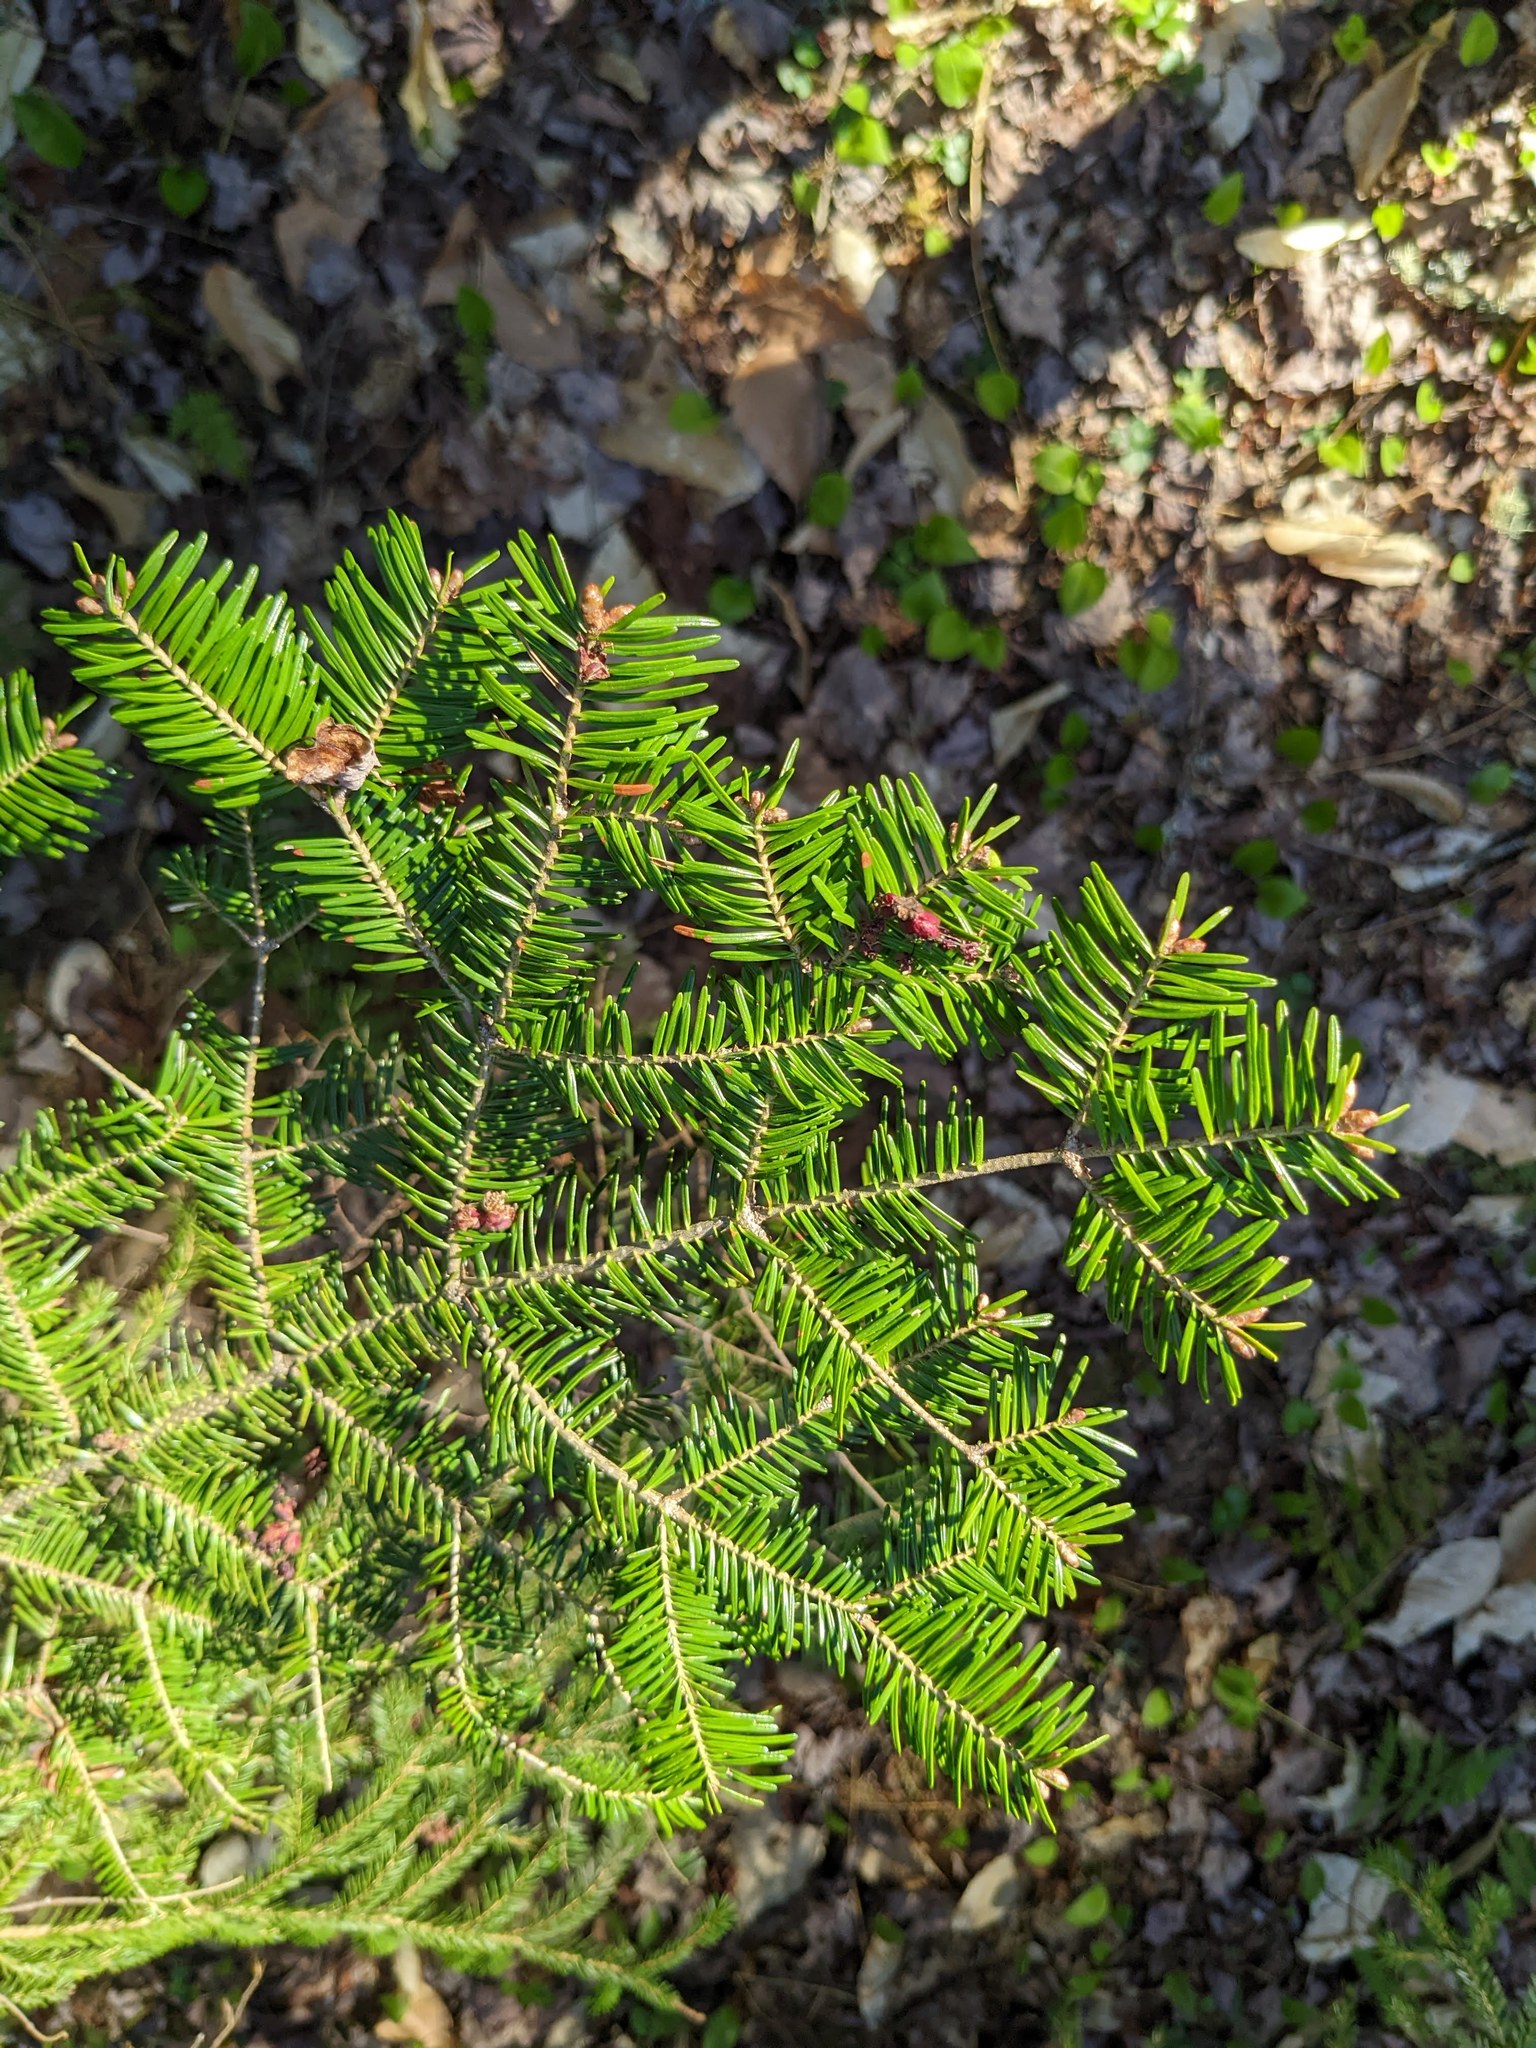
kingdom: Plantae
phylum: Tracheophyta
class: Pinopsida
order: Pinales
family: Pinaceae
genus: Abies
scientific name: Abies balsamea
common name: Balsam fir
